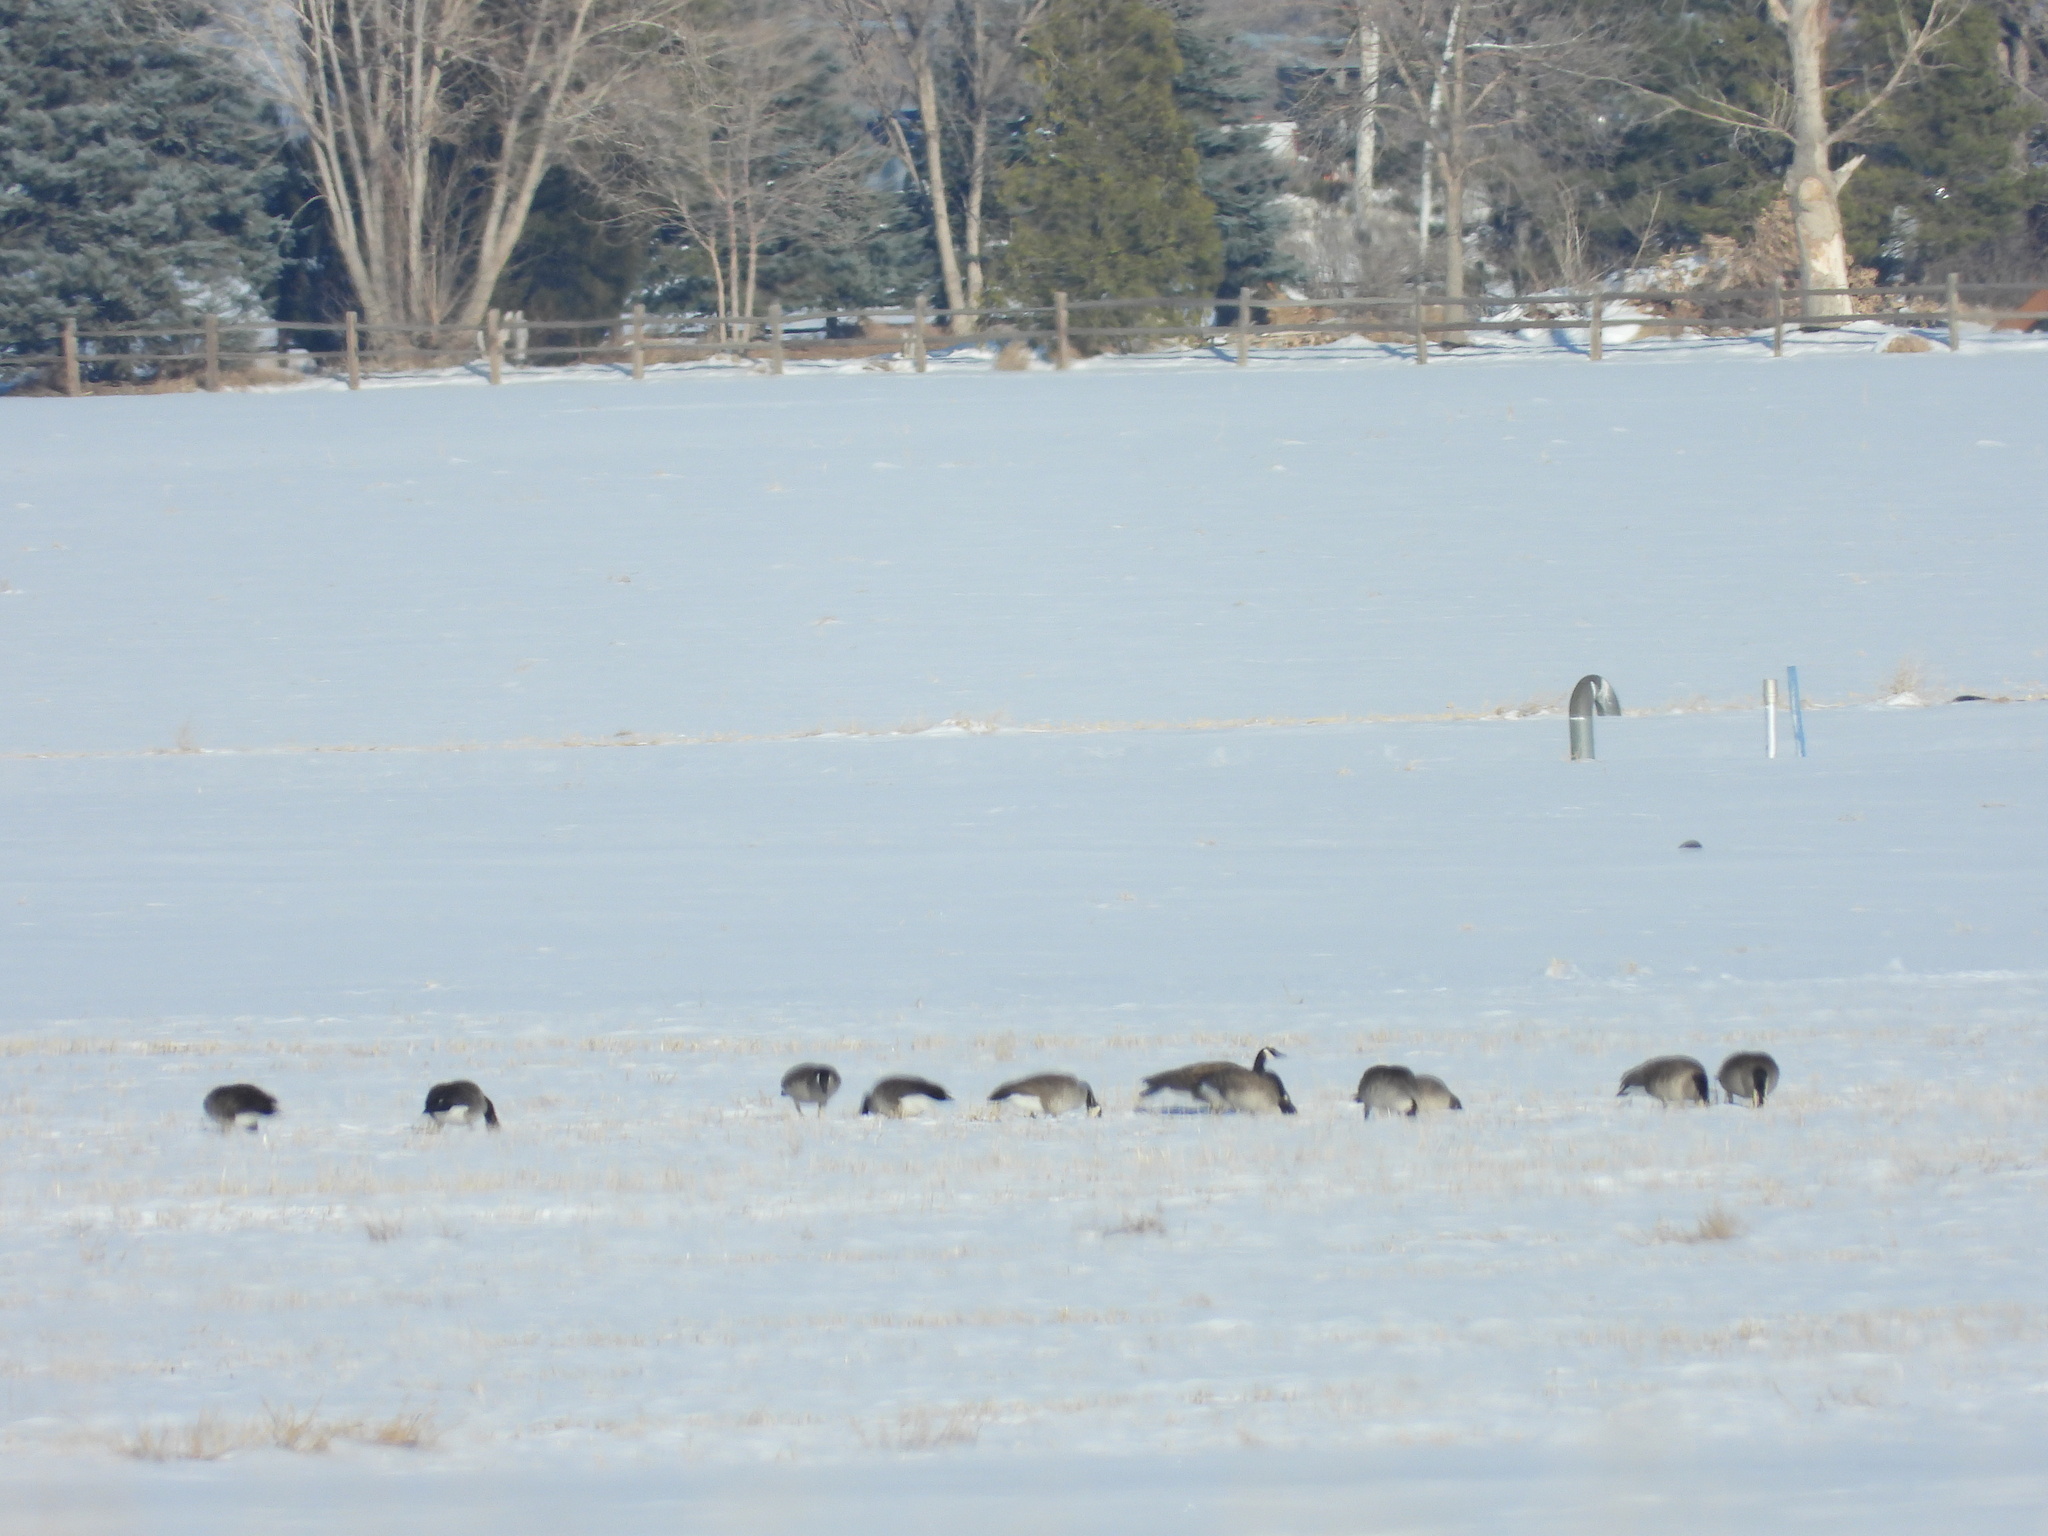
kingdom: Animalia
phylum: Chordata
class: Aves
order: Anseriformes
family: Anatidae
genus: Branta
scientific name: Branta canadensis
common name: Canada goose
